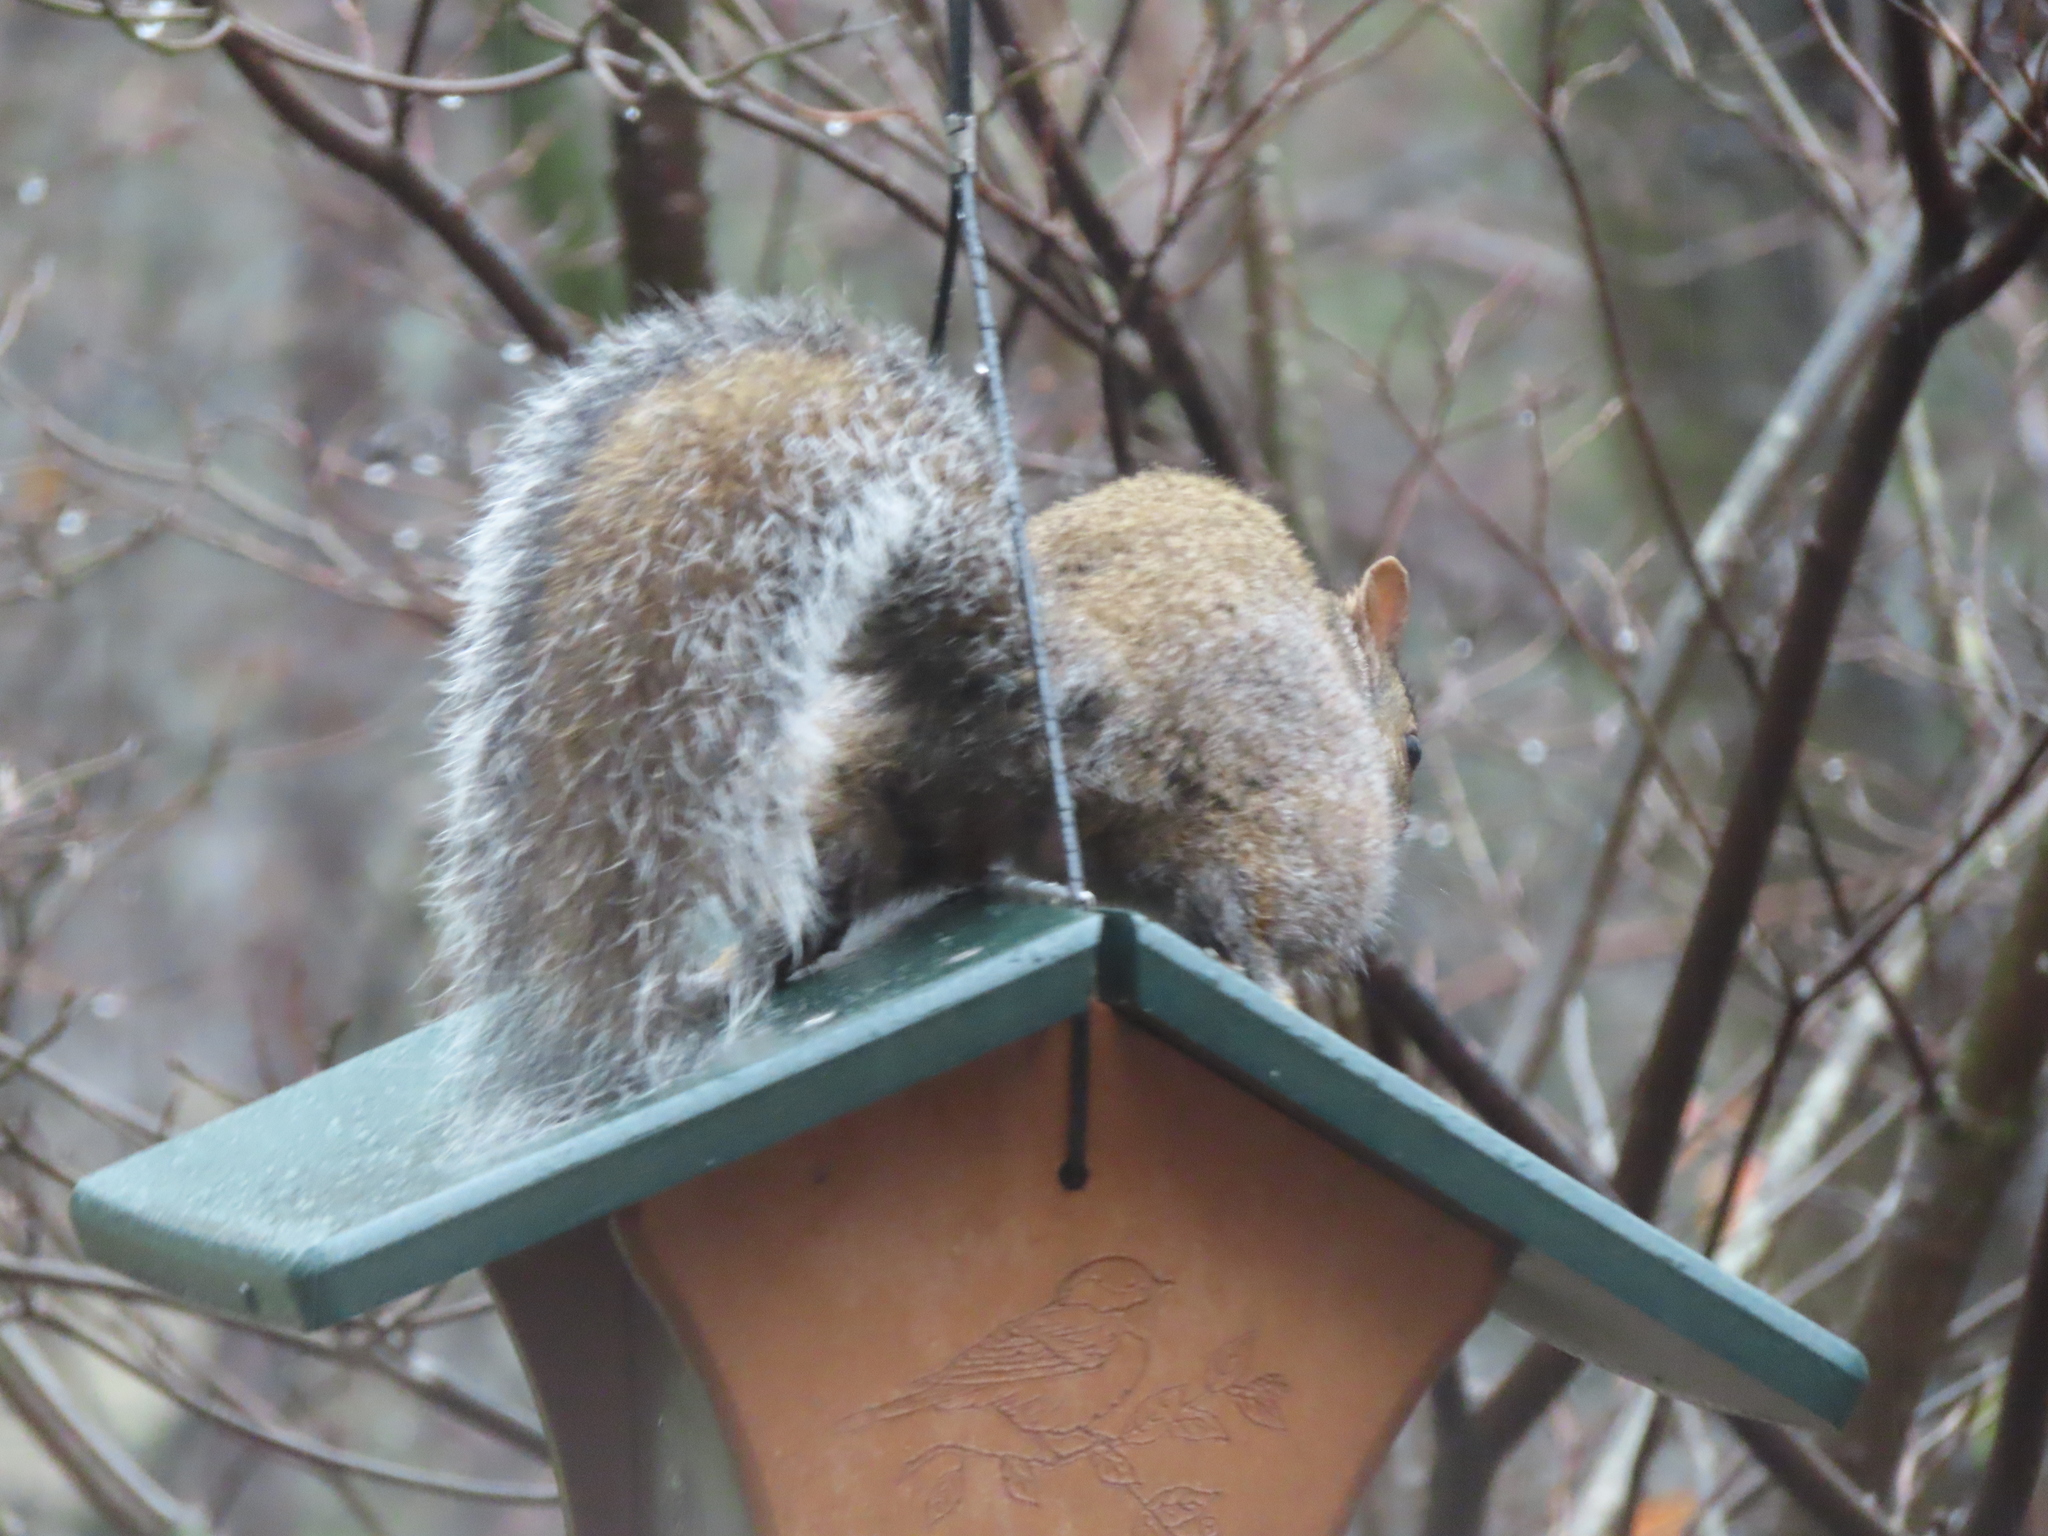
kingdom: Animalia
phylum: Chordata
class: Mammalia
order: Rodentia
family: Sciuridae
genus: Sciurus
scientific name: Sciurus carolinensis
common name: Eastern gray squirrel
